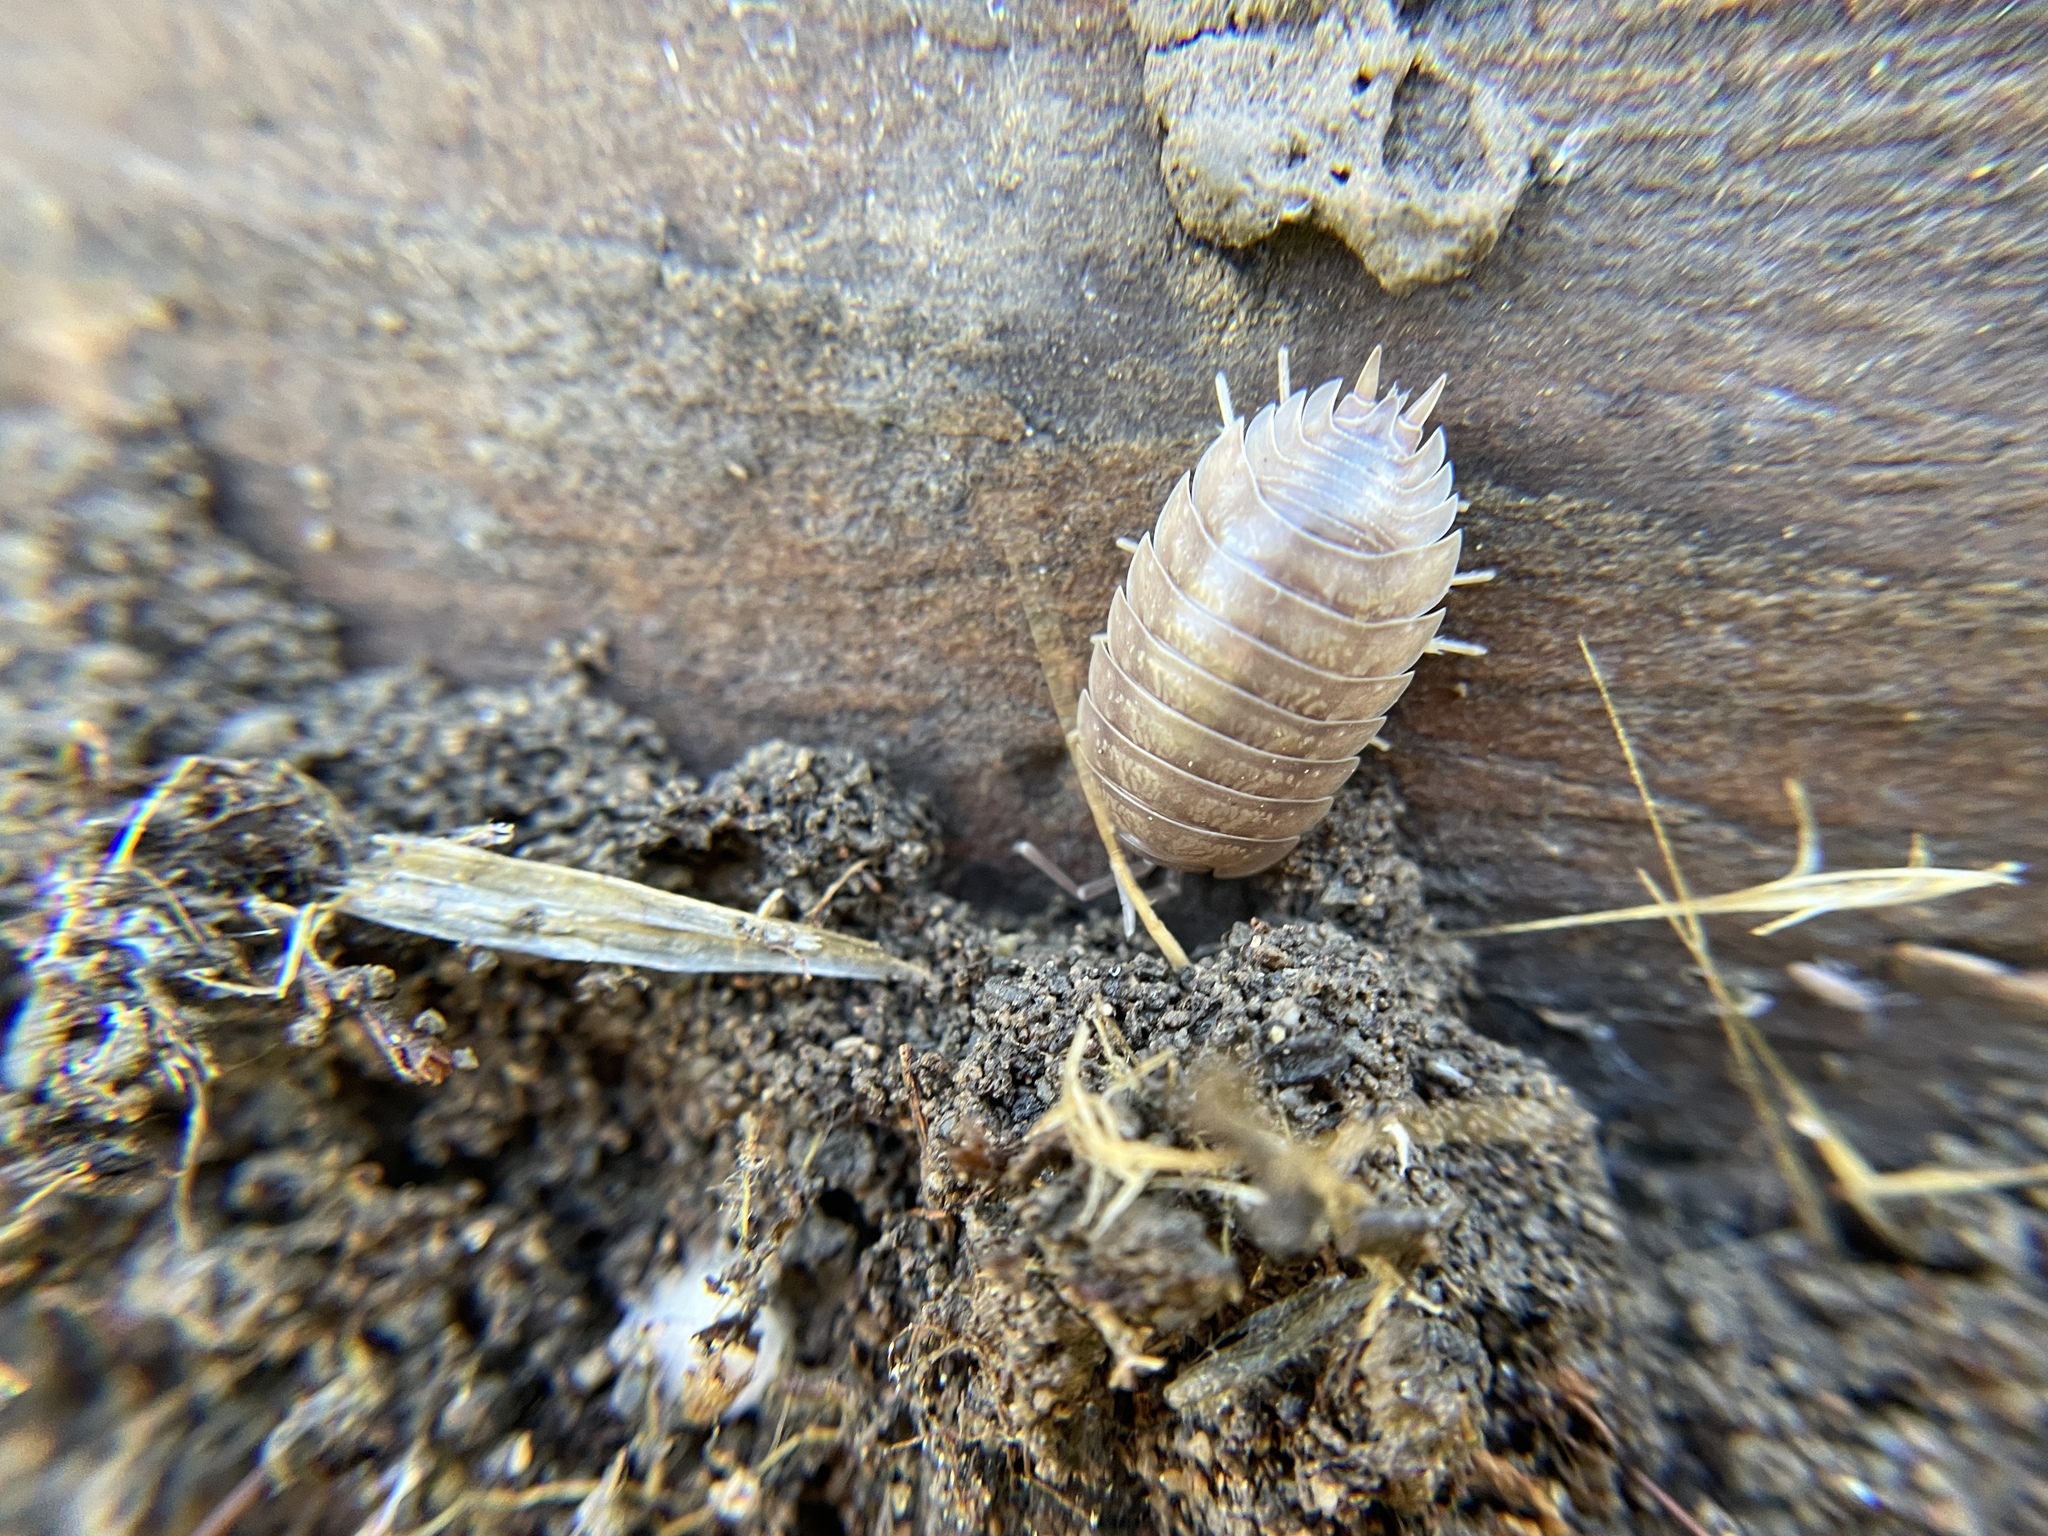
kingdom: Animalia
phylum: Arthropoda
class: Malacostraca
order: Isopoda
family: Porcellionidae
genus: Porcellio
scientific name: Porcellio laevis
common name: Swift woodlouse
